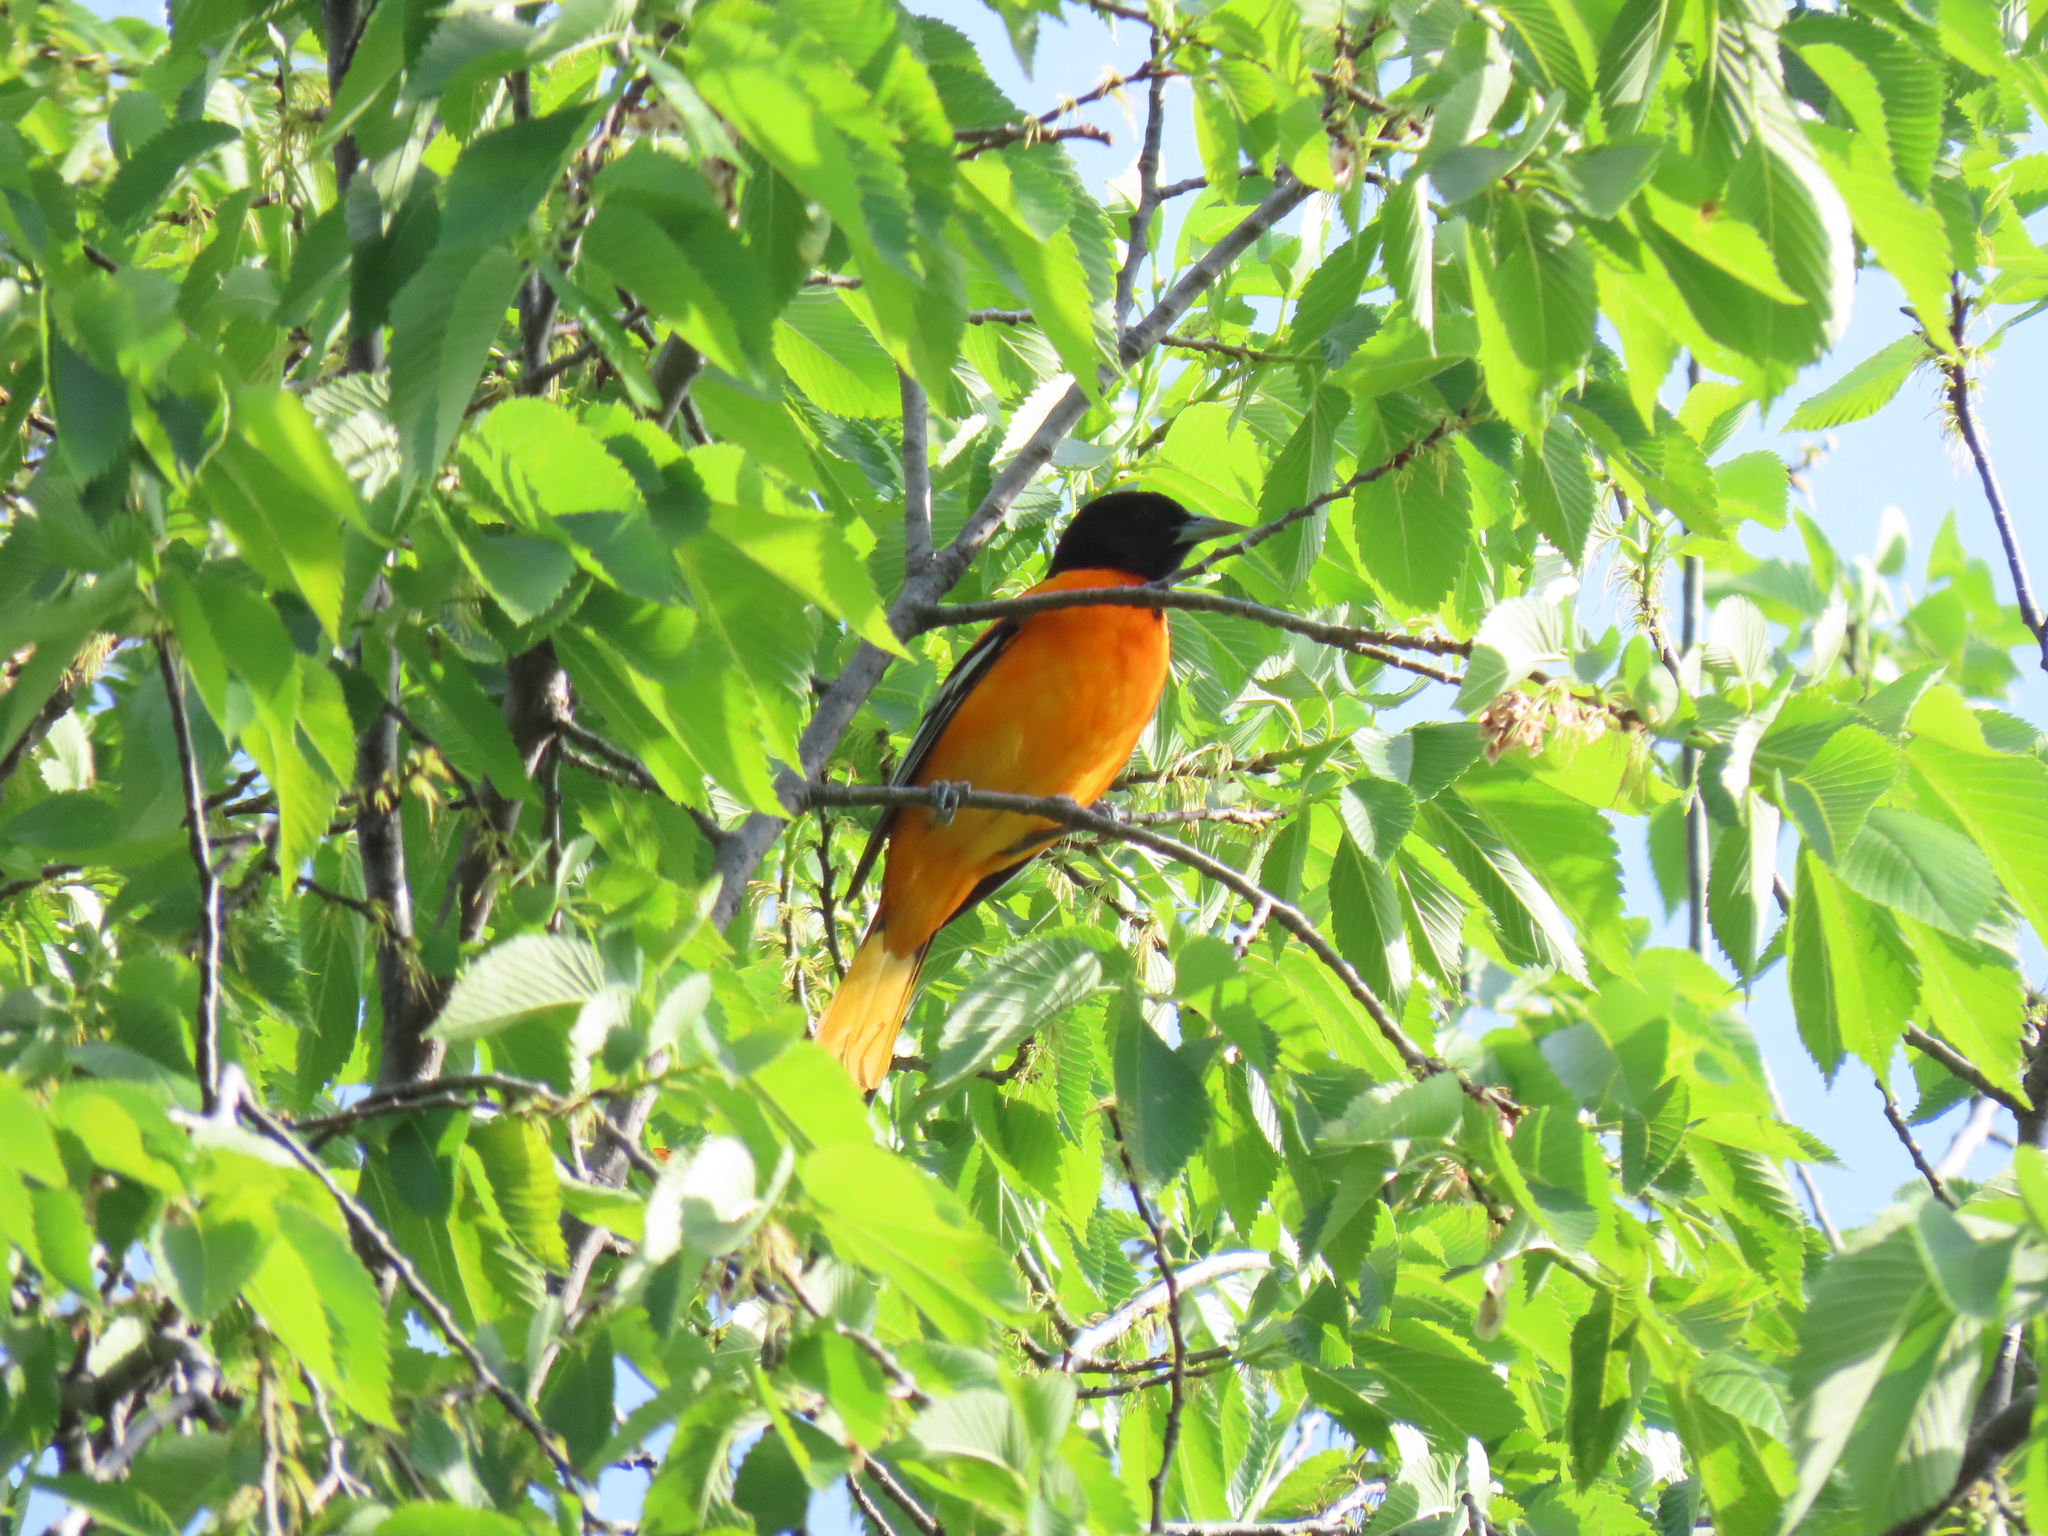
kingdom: Animalia
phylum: Chordata
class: Aves
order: Passeriformes
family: Icteridae
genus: Icterus
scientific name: Icterus galbula
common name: Baltimore oriole
